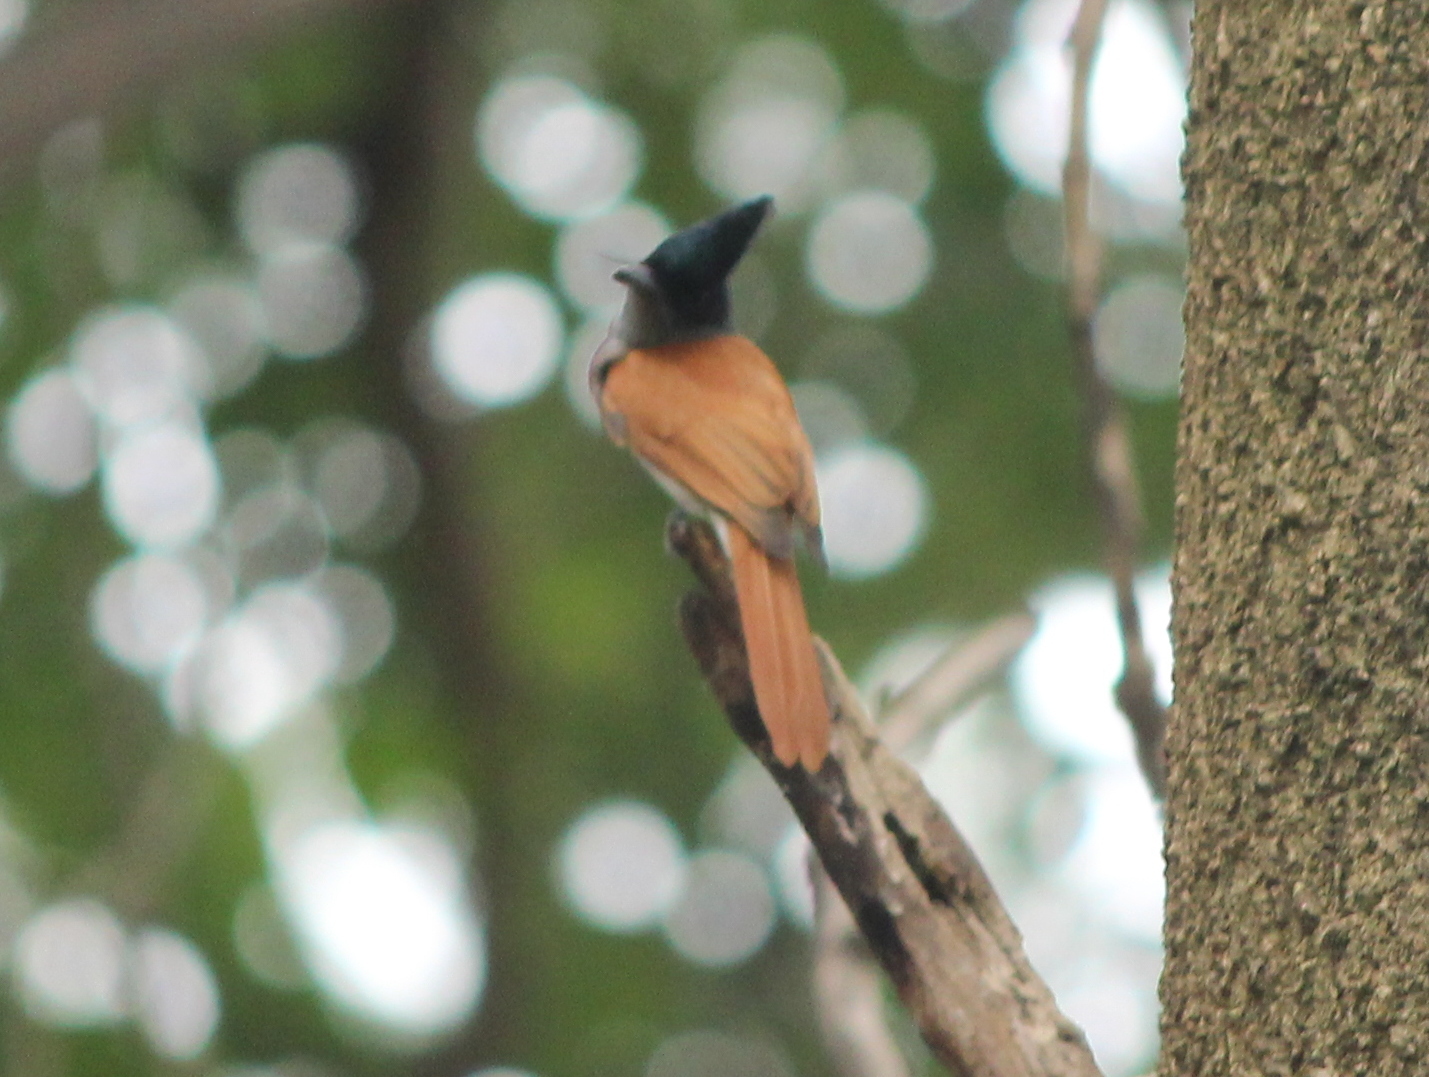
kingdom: Animalia
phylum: Chordata
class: Aves
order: Passeriformes
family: Monarchidae
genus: Terpsiphone
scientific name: Terpsiphone paradisi
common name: Indian paradise flycatcher
